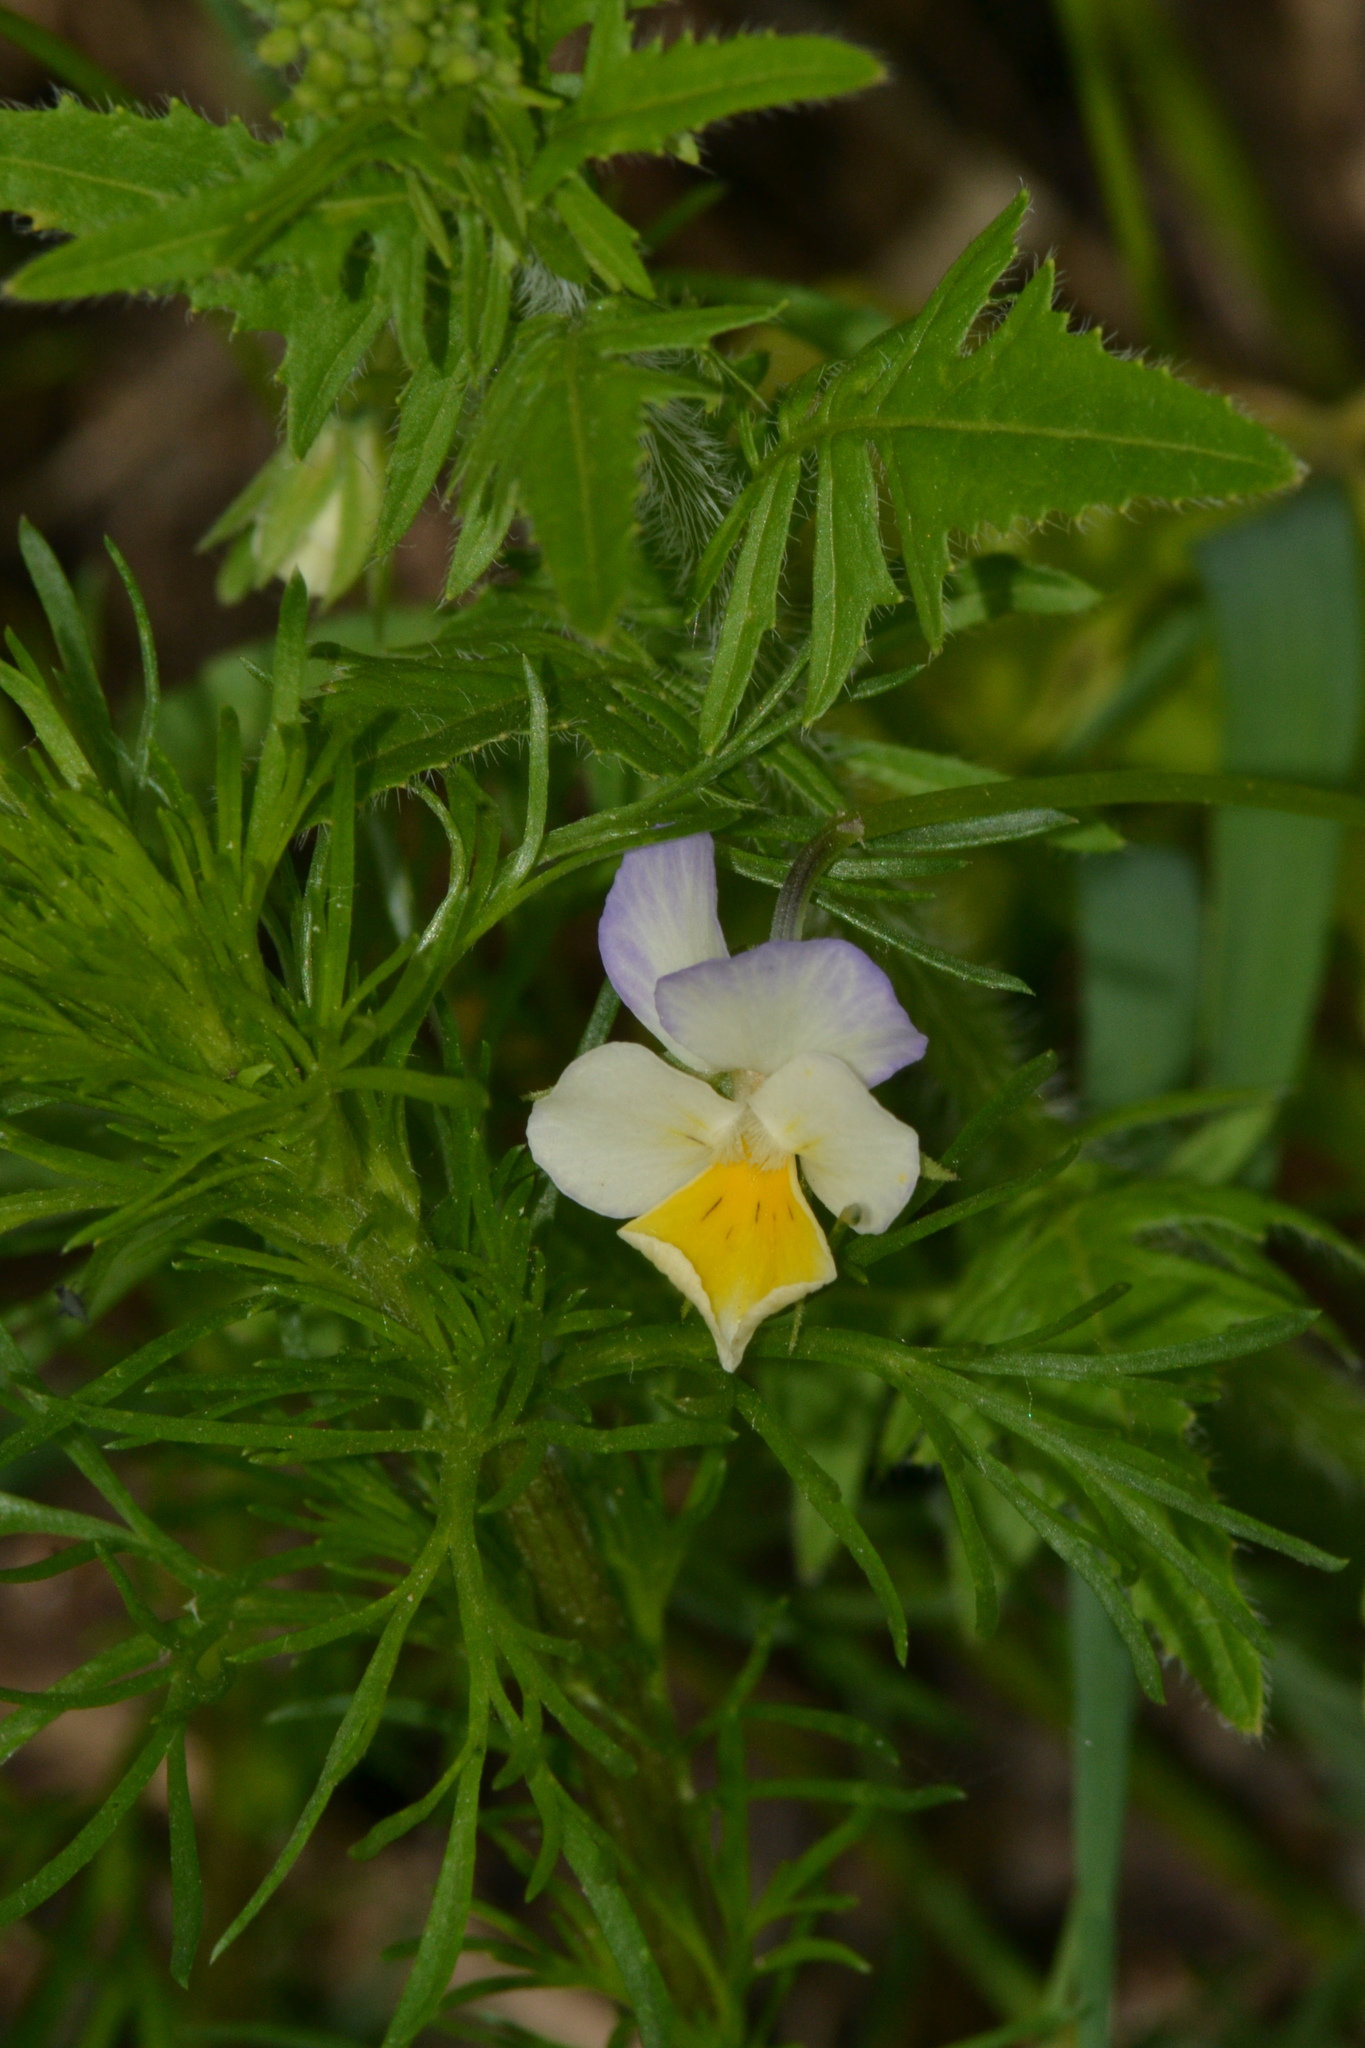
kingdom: Plantae
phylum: Tracheophyta
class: Magnoliopsida
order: Malpighiales
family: Violaceae
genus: Viola
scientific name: Viola contempta
